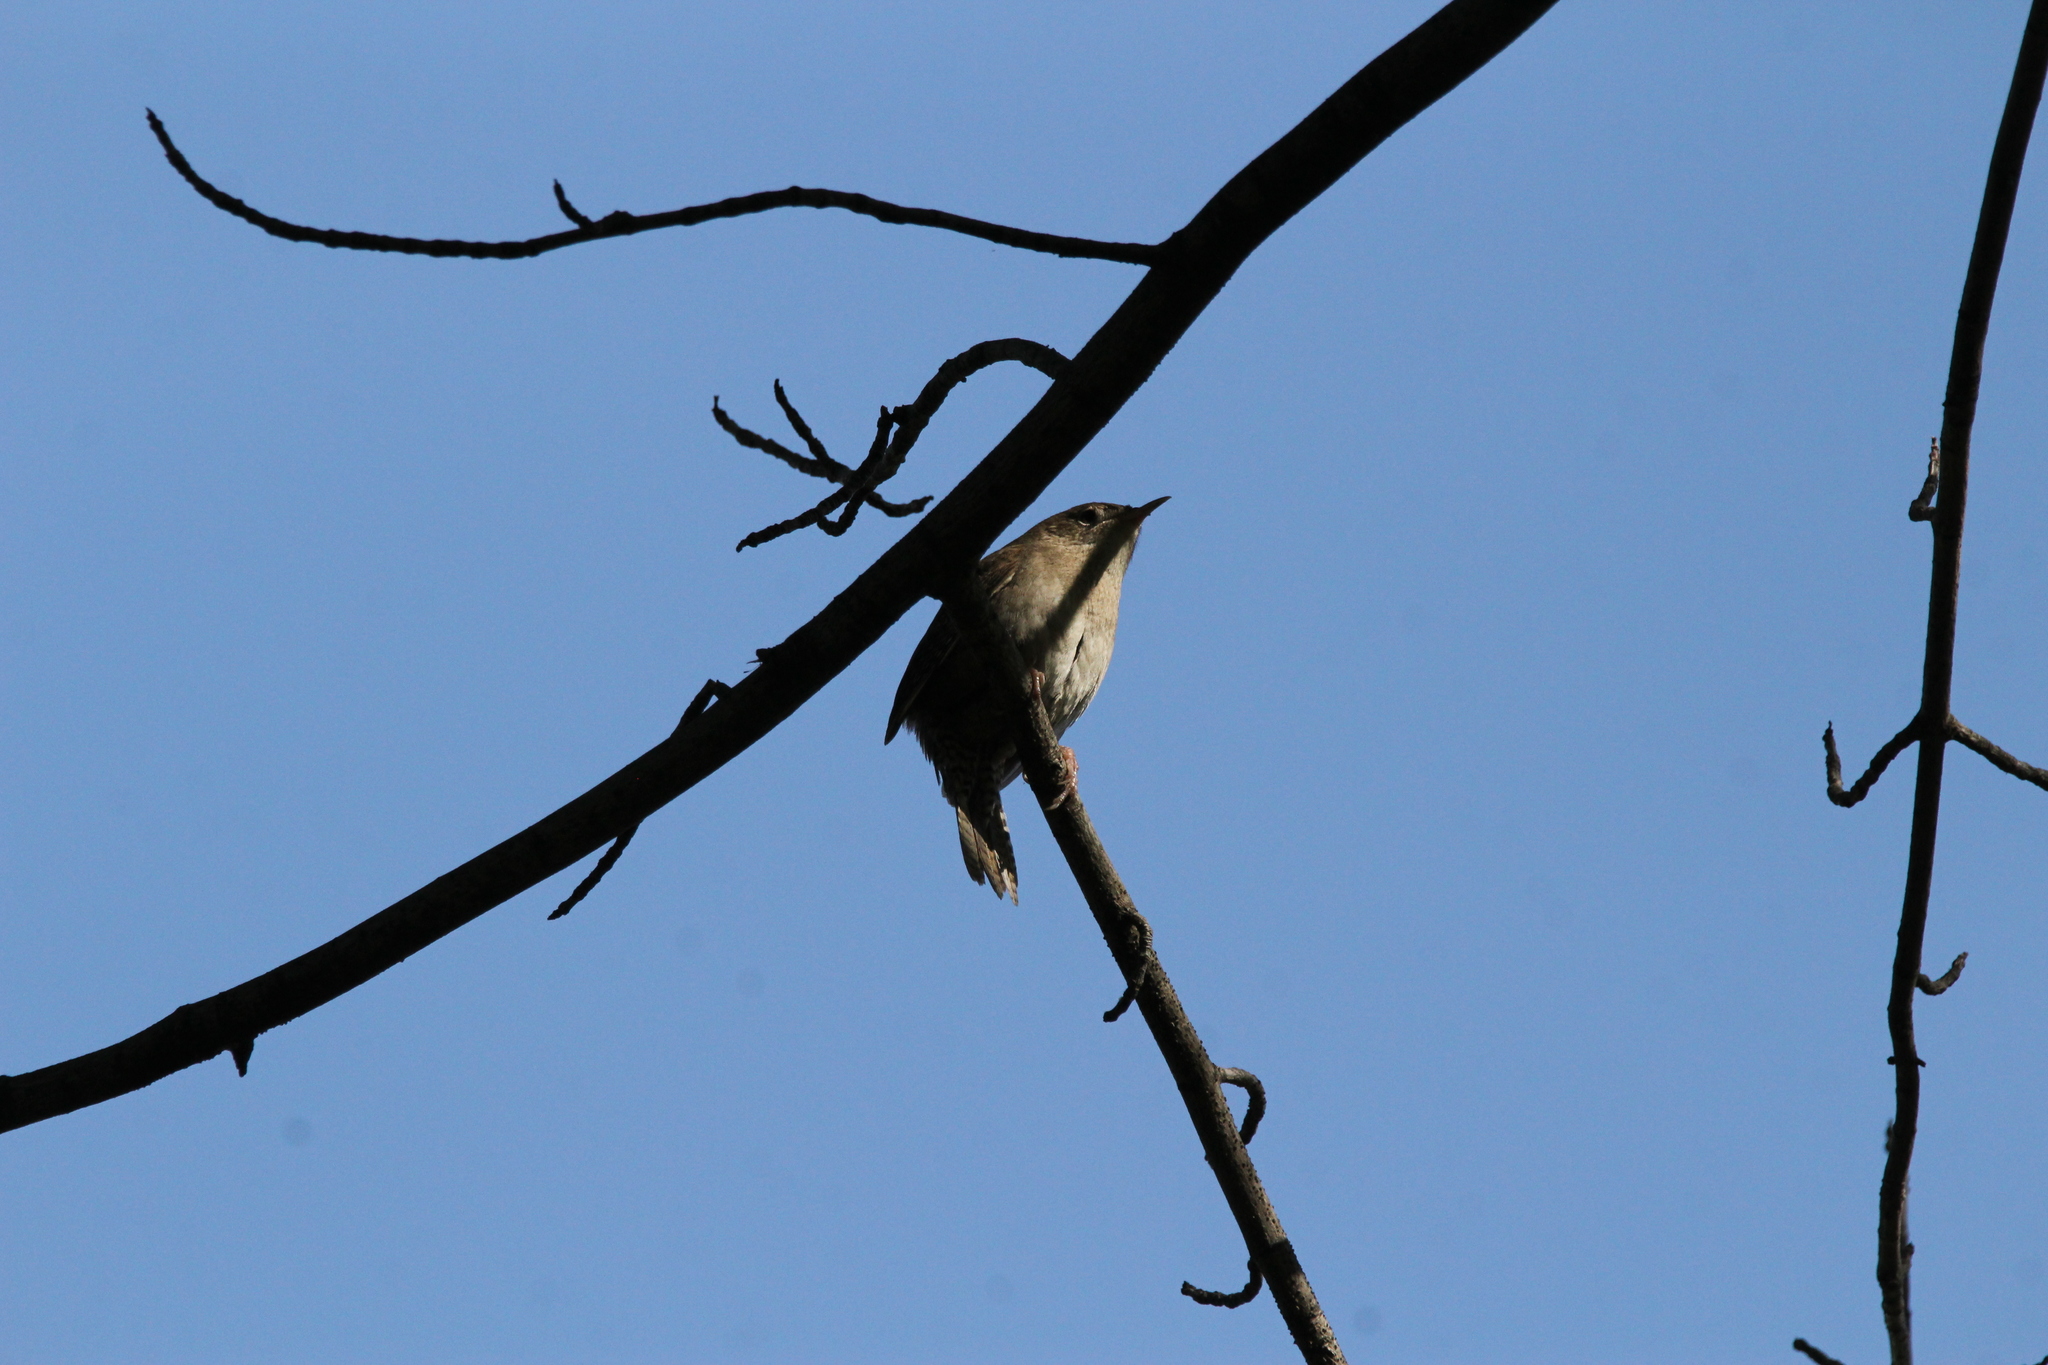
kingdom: Animalia
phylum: Chordata
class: Aves
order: Passeriformes
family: Troglodytidae
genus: Troglodytes
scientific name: Troglodytes aedon
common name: House wren
